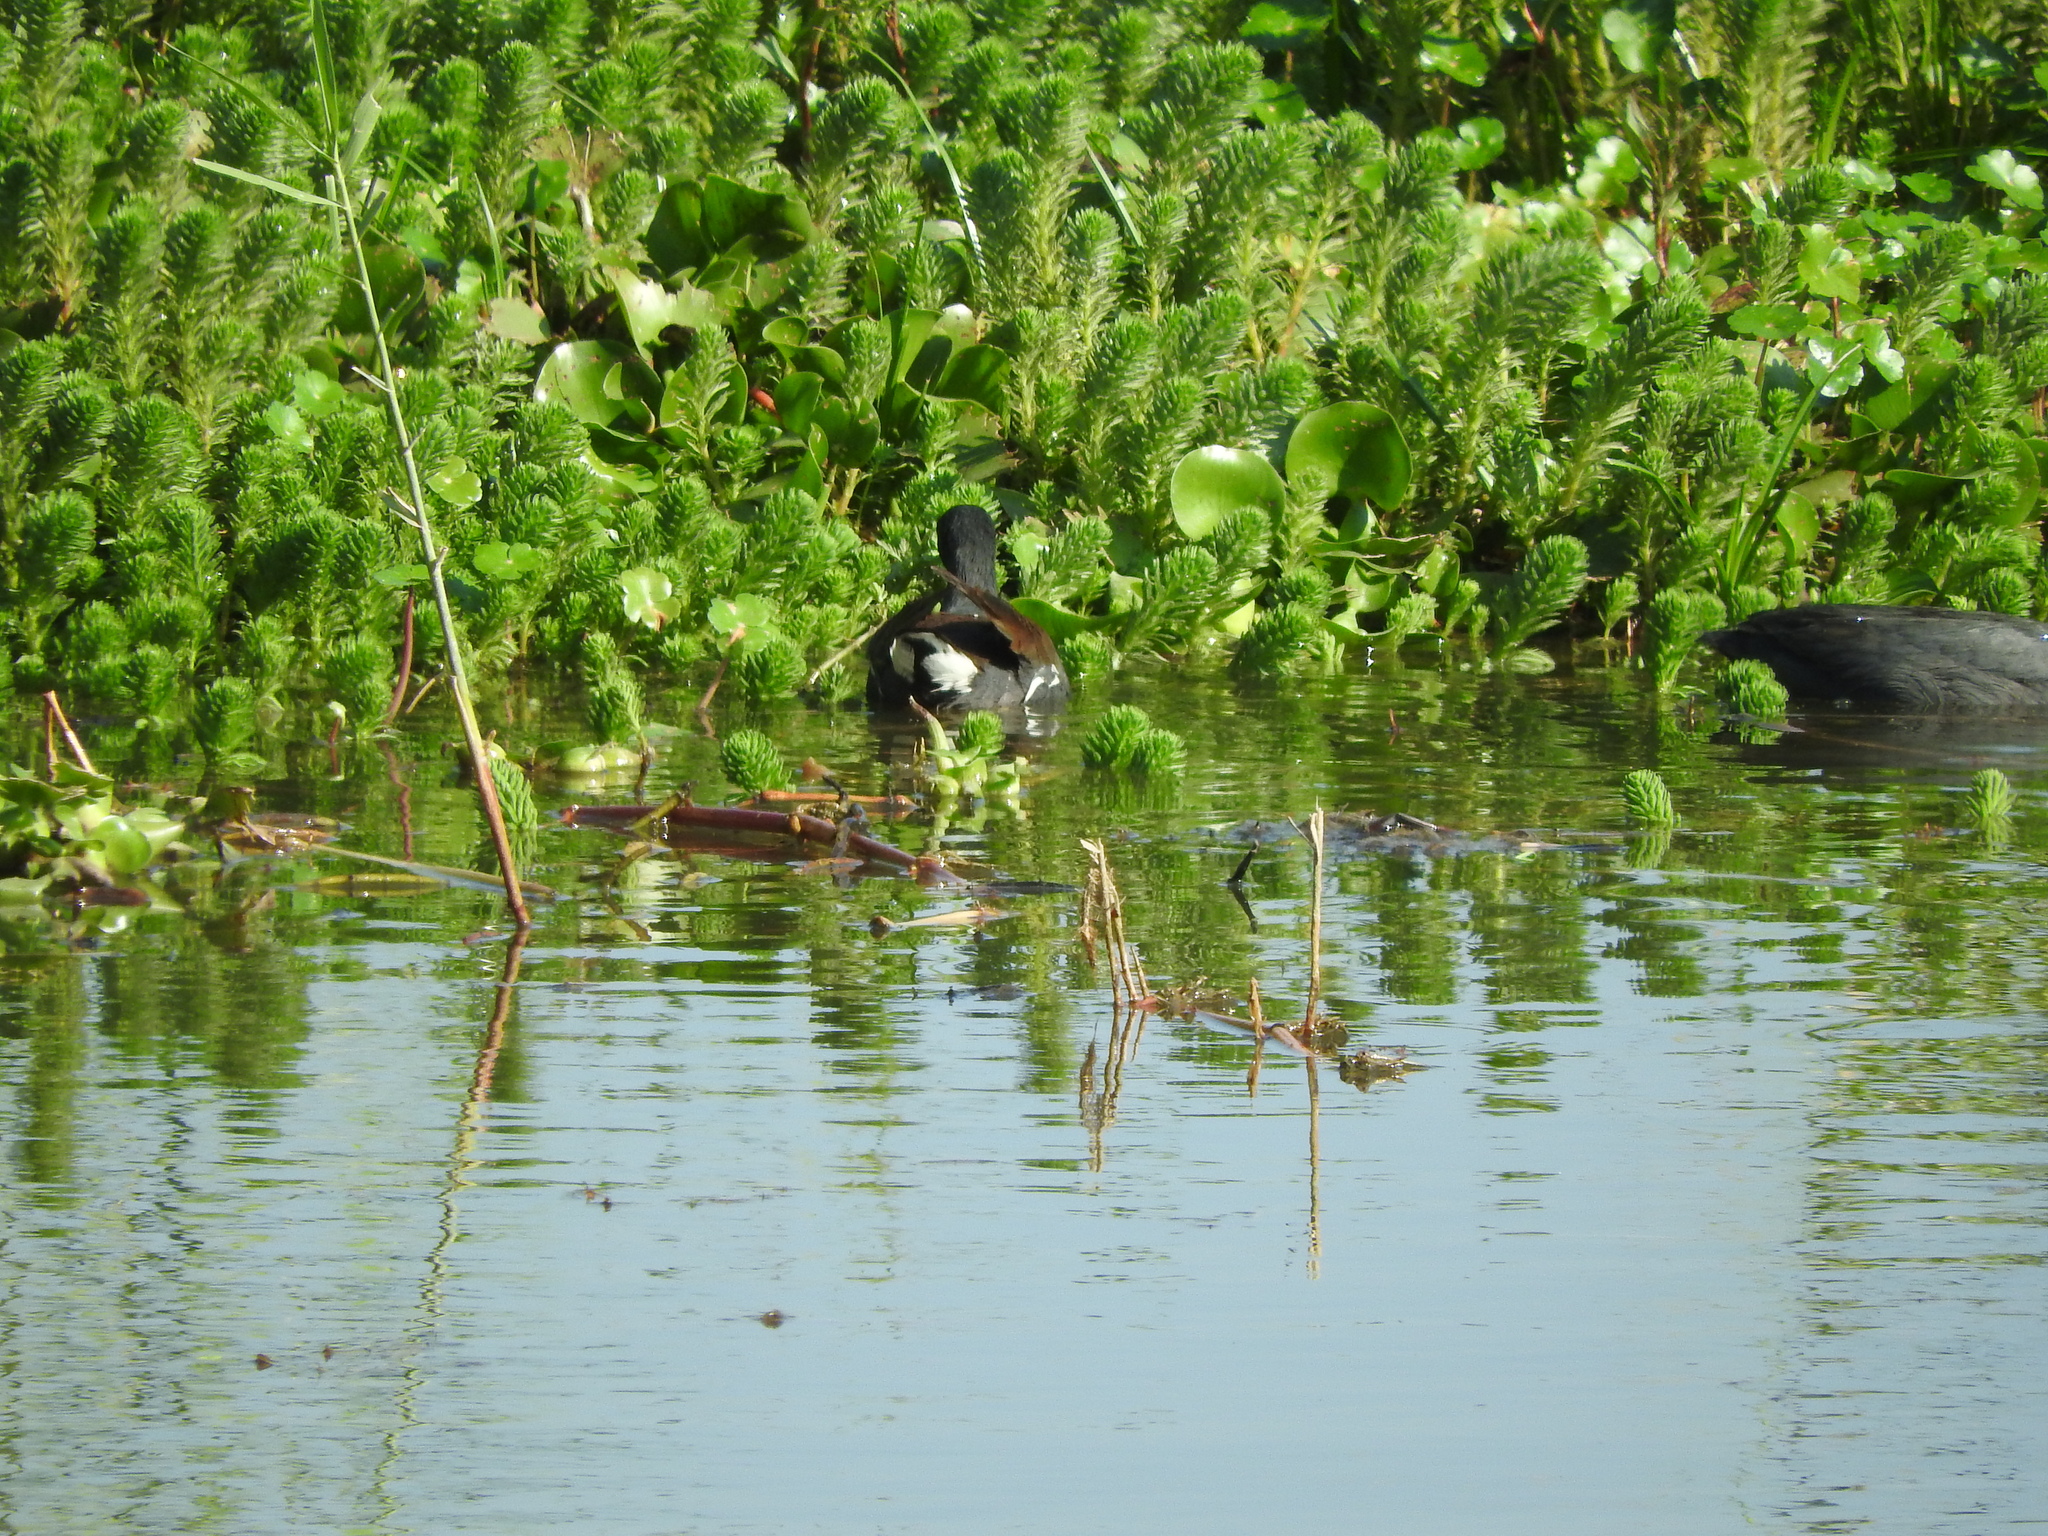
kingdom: Animalia
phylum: Chordata
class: Aves
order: Gruiformes
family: Rallidae
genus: Gallinula
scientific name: Gallinula chloropus
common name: Common moorhen
